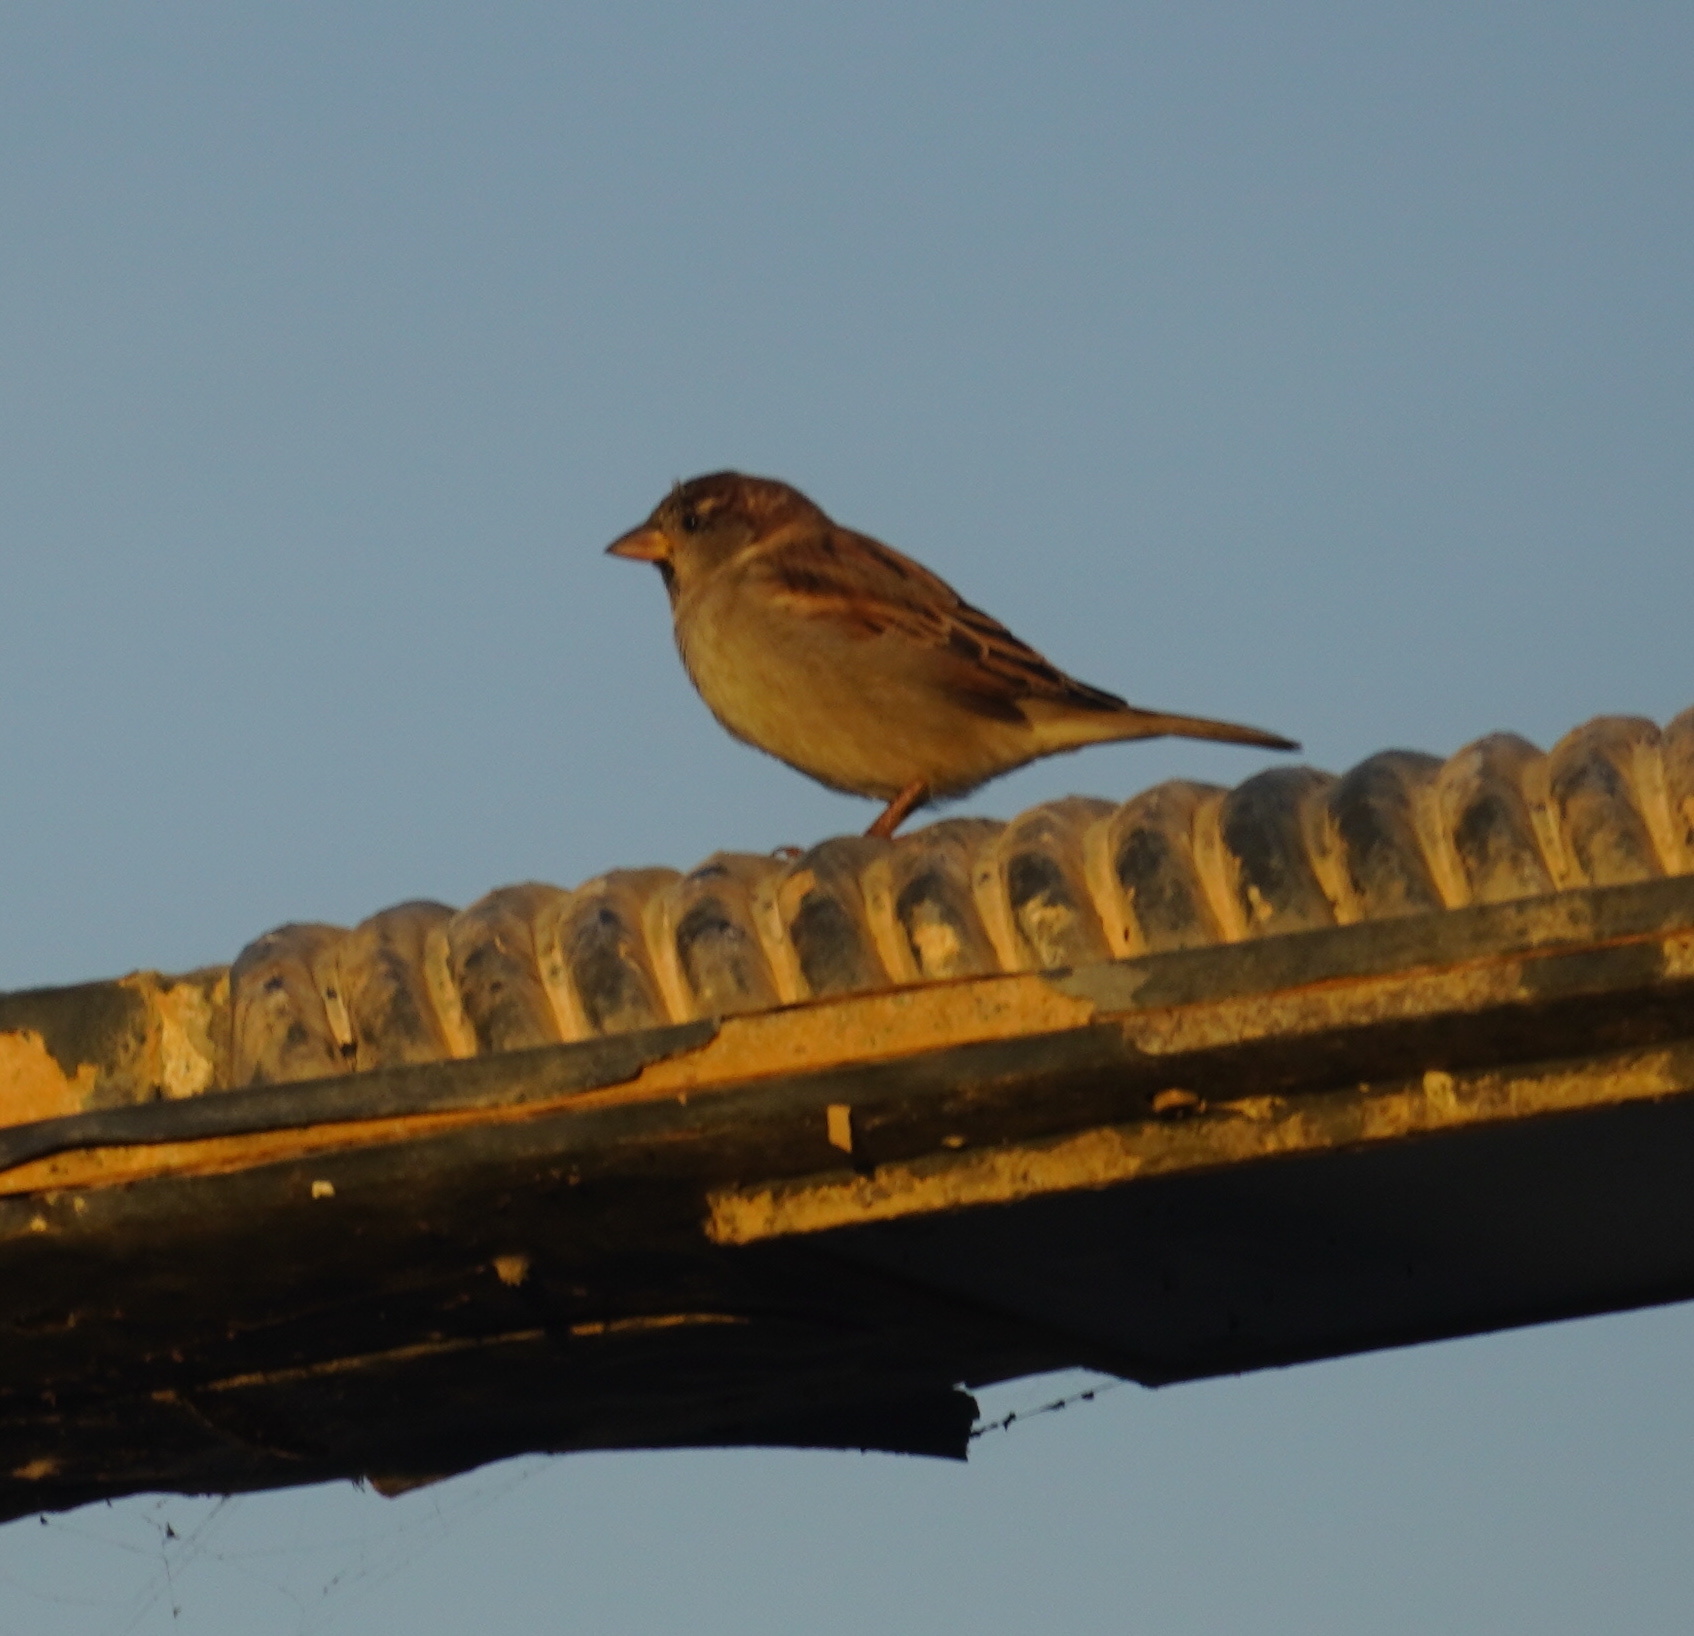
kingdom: Animalia
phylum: Chordata
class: Aves
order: Passeriformes
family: Passeridae
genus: Passer
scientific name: Passer domesticus
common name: House sparrow
